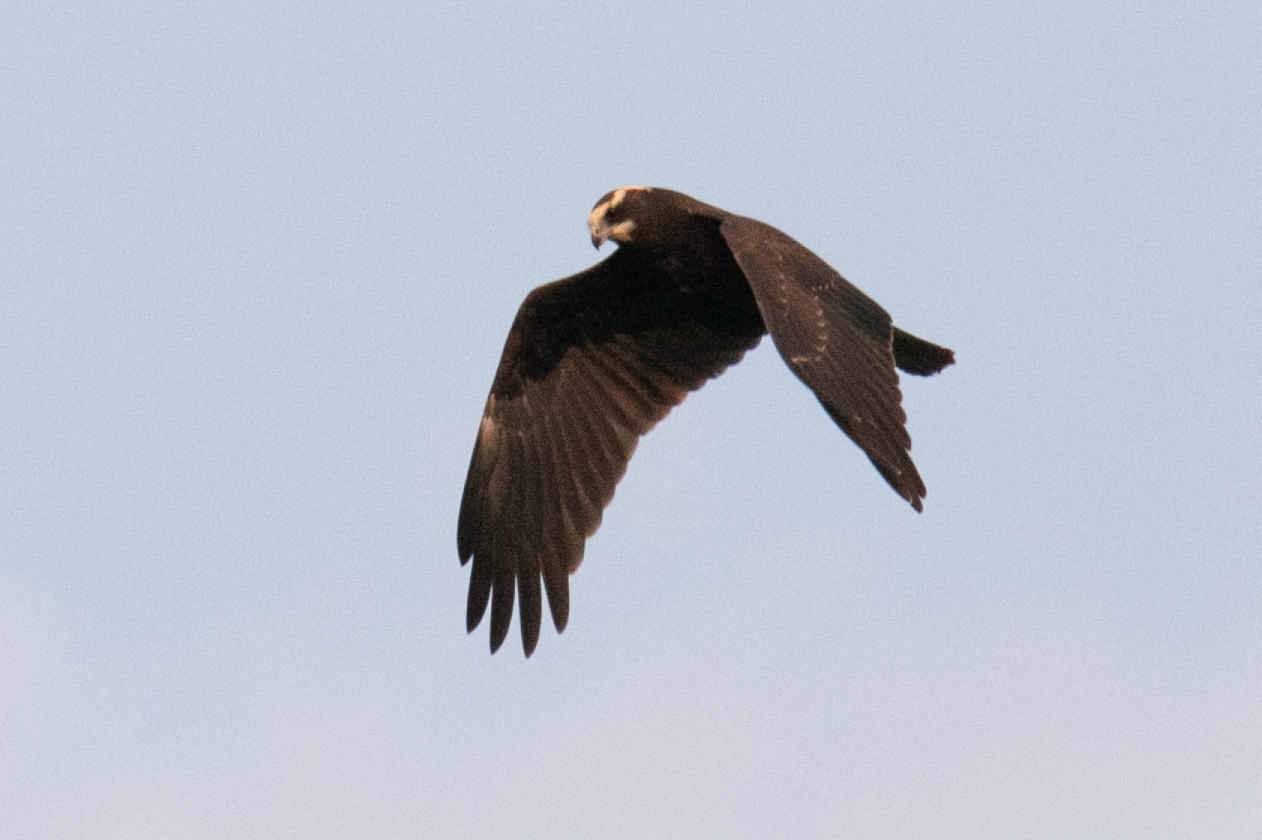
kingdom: Animalia
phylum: Chordata
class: Aves
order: Accipitriformes
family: Accipitridae
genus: Circus
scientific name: Circus aeruginosus
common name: Western marsh harrier
